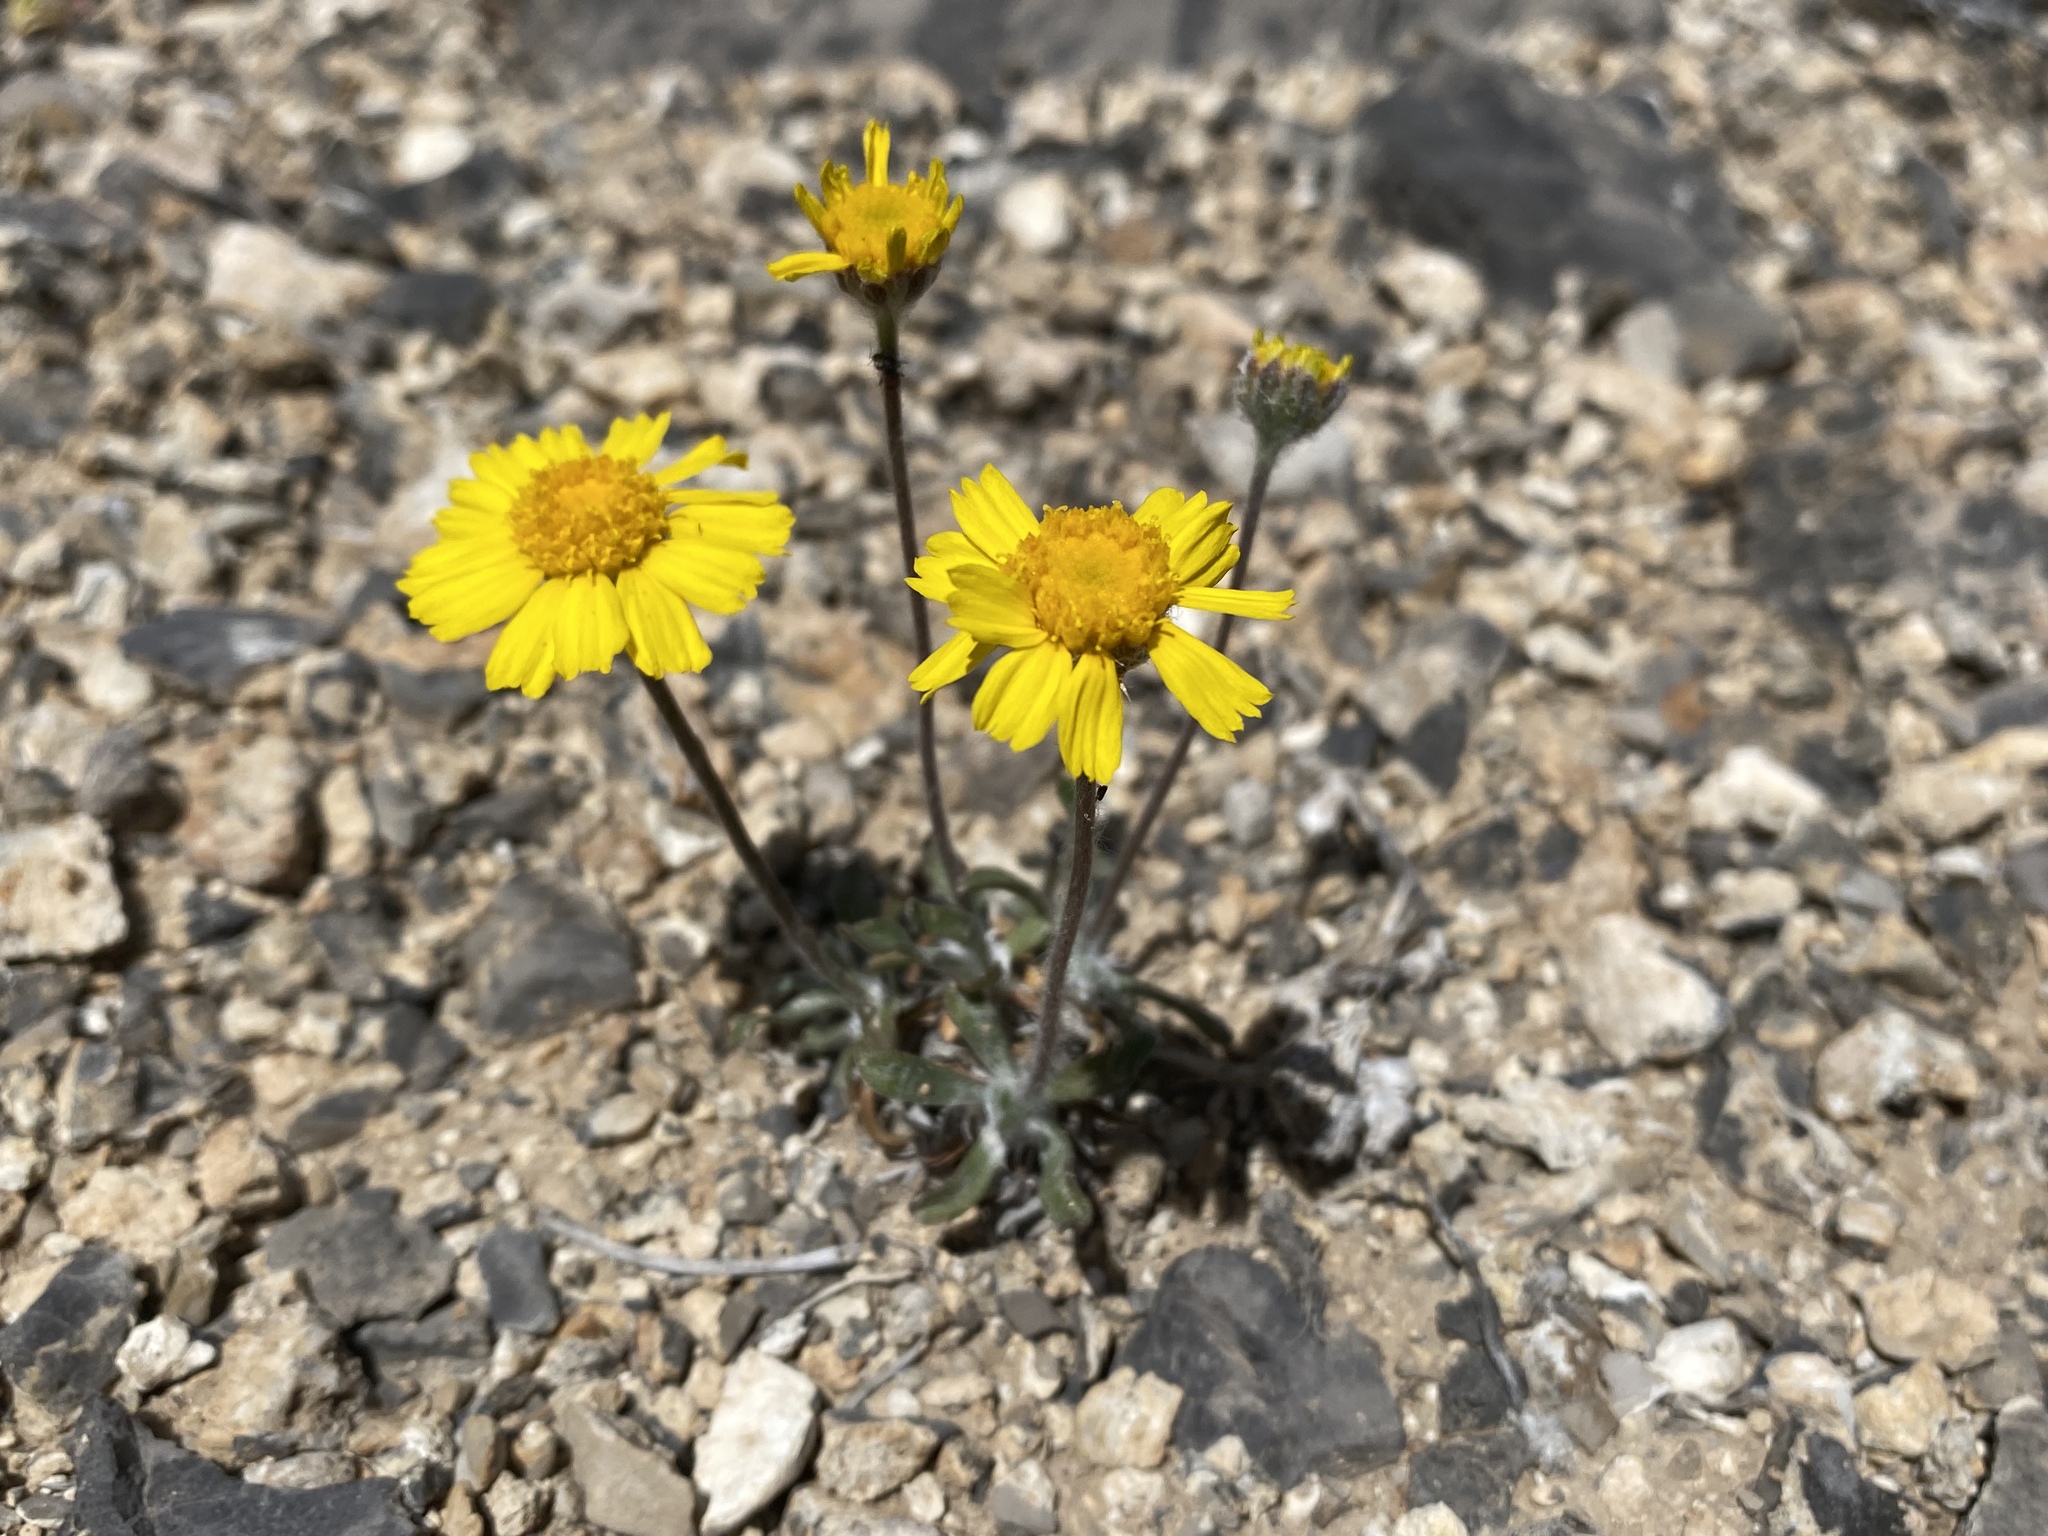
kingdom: Plantae
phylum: Tracheophyta
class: Magnoliopsida
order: Asterales
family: Asteraceae
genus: Tetraneuris
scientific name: Tetraneuris acaulis
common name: Butte marigold
